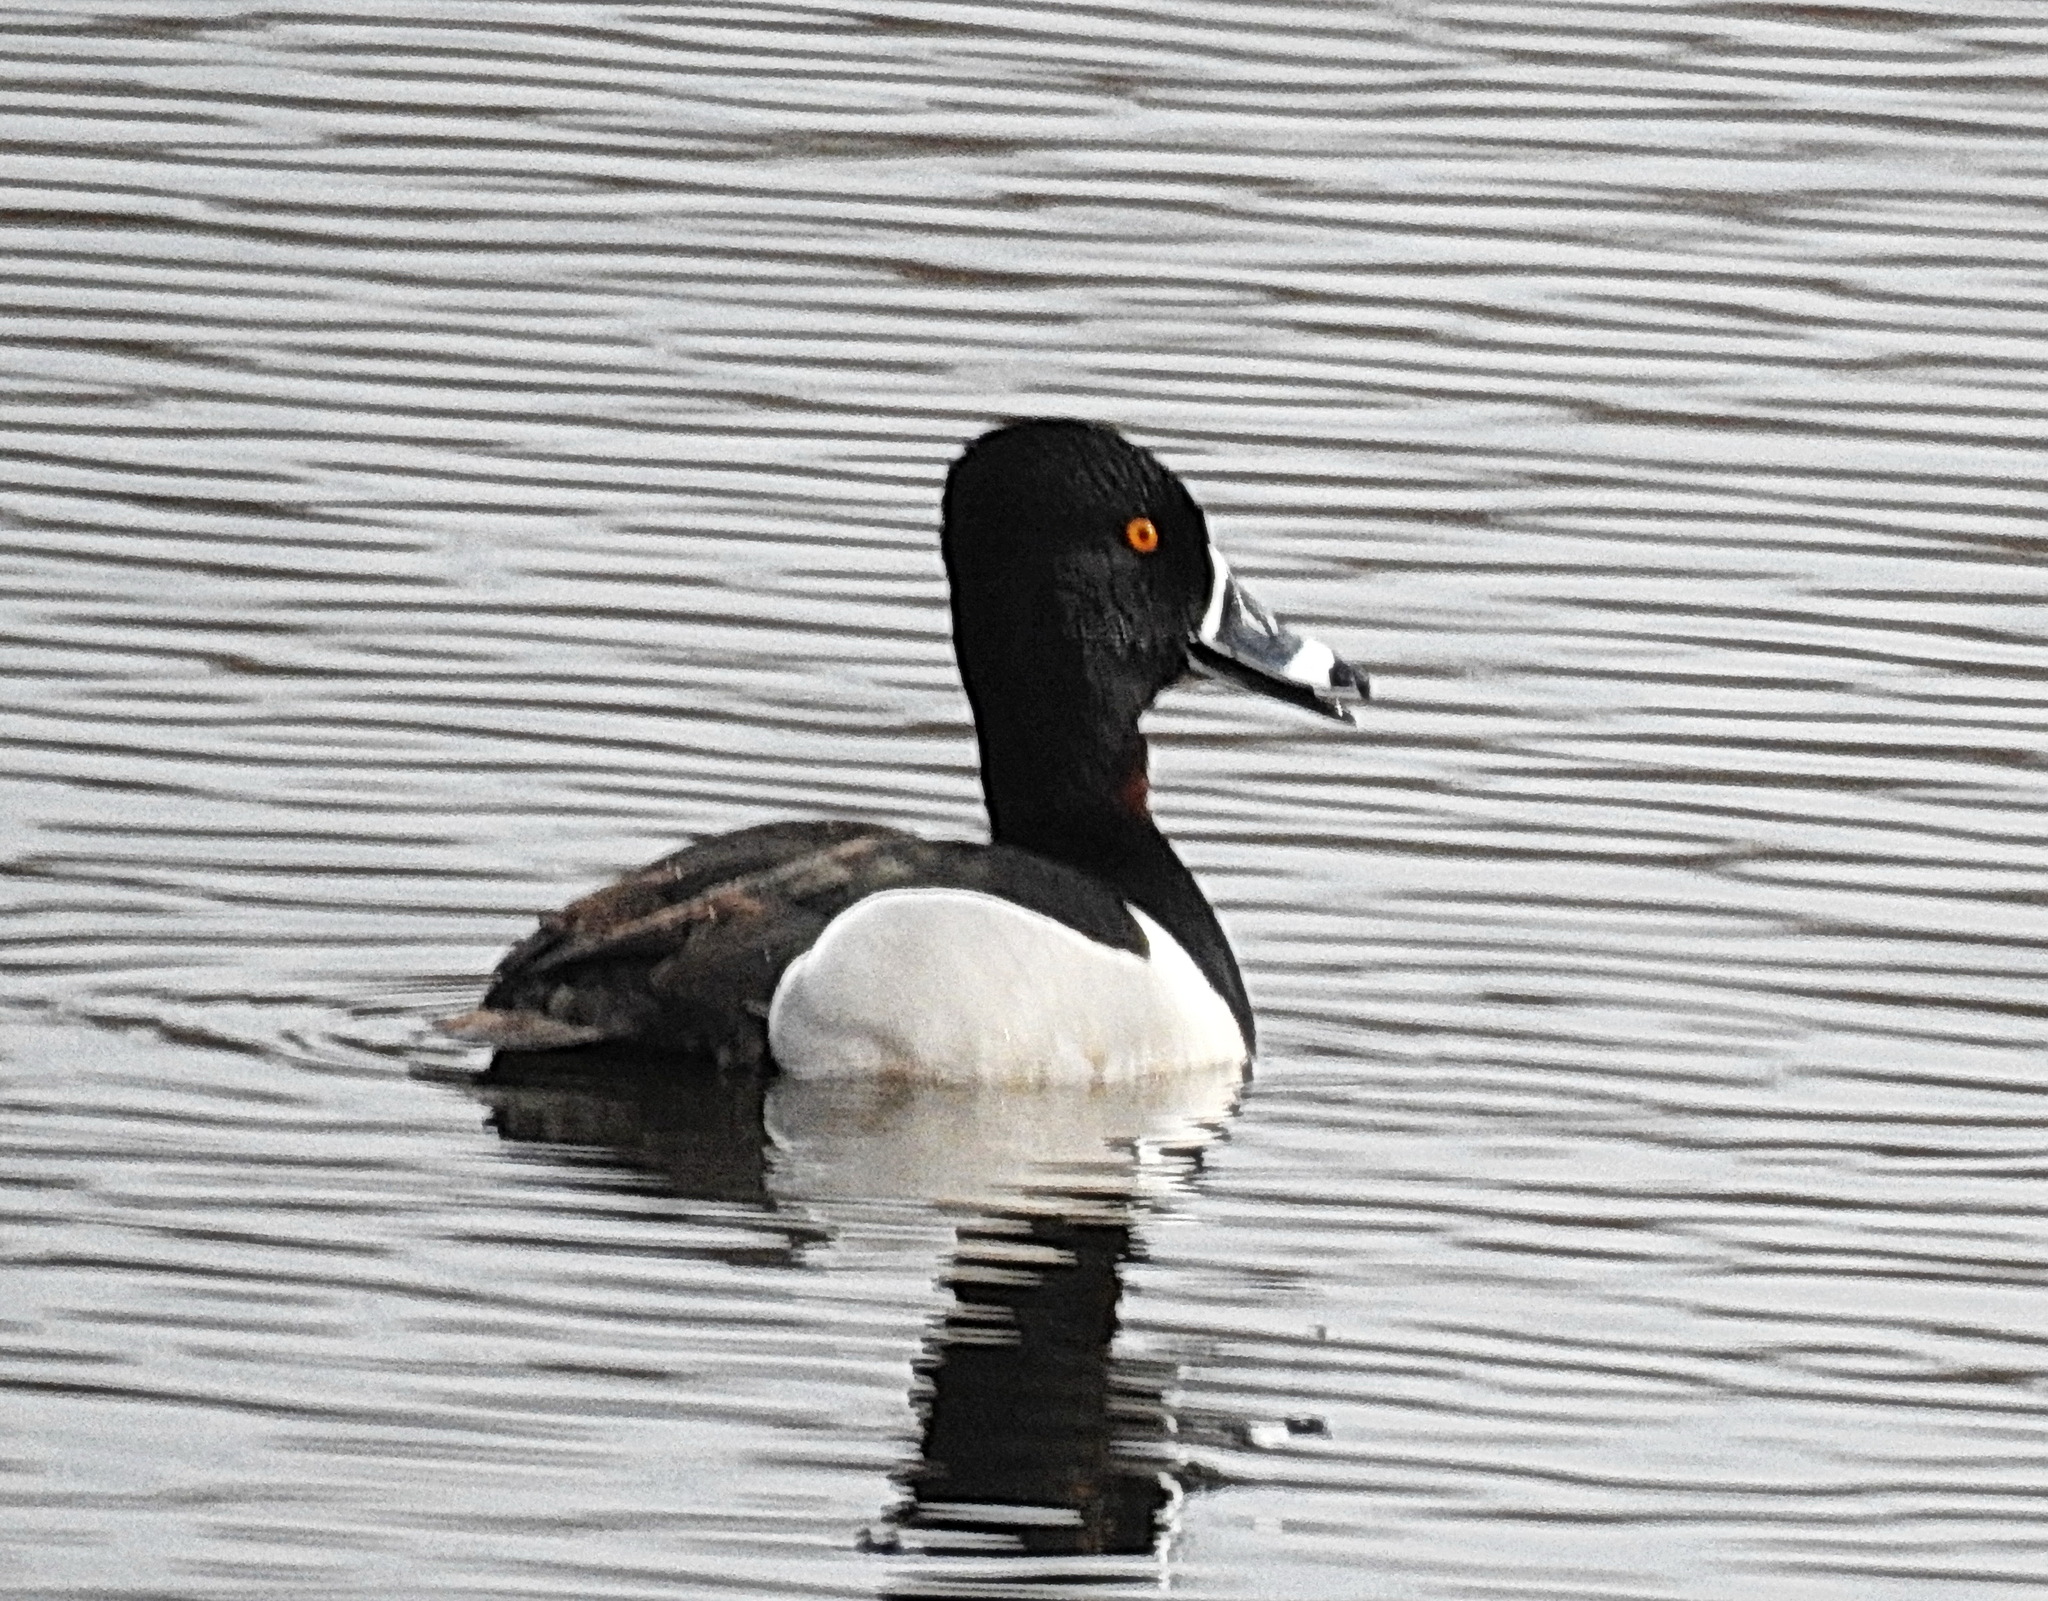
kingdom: Animalia
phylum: Chordata
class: Aves
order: Anseriformes
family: Anatidae
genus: Aythya
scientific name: Aythya collaris
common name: Ring-necked duck
